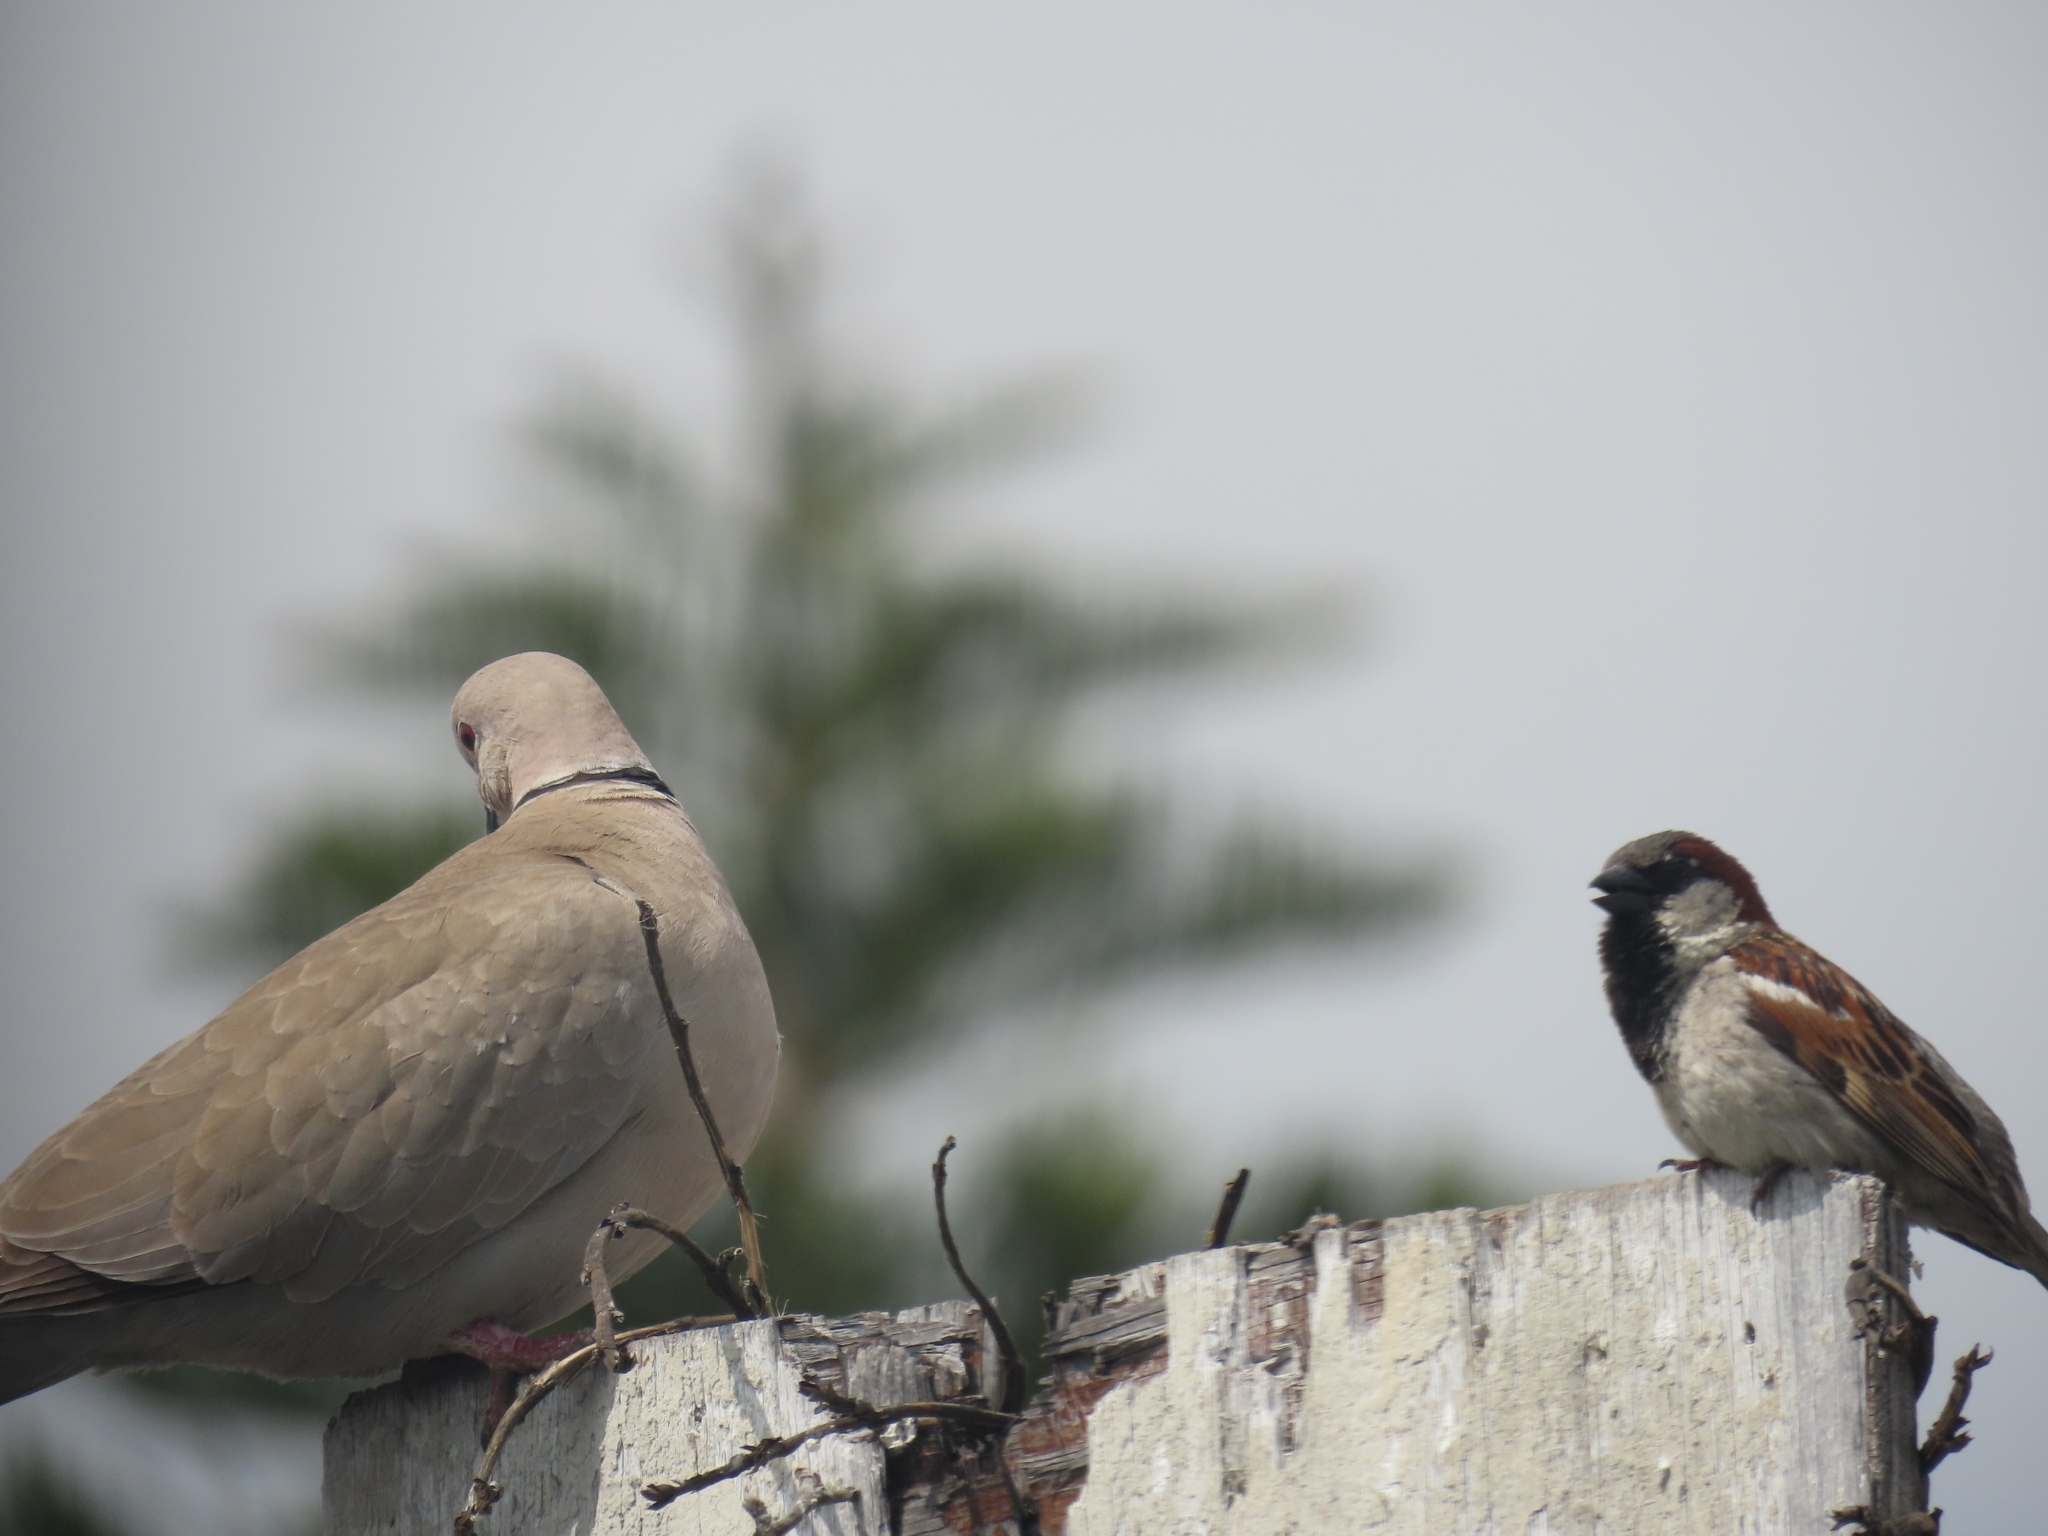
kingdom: Animalia
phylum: Chordata
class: Aves
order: Passeriformes
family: Passeridae
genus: Passer
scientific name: Passer domesticus
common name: House sparrow
